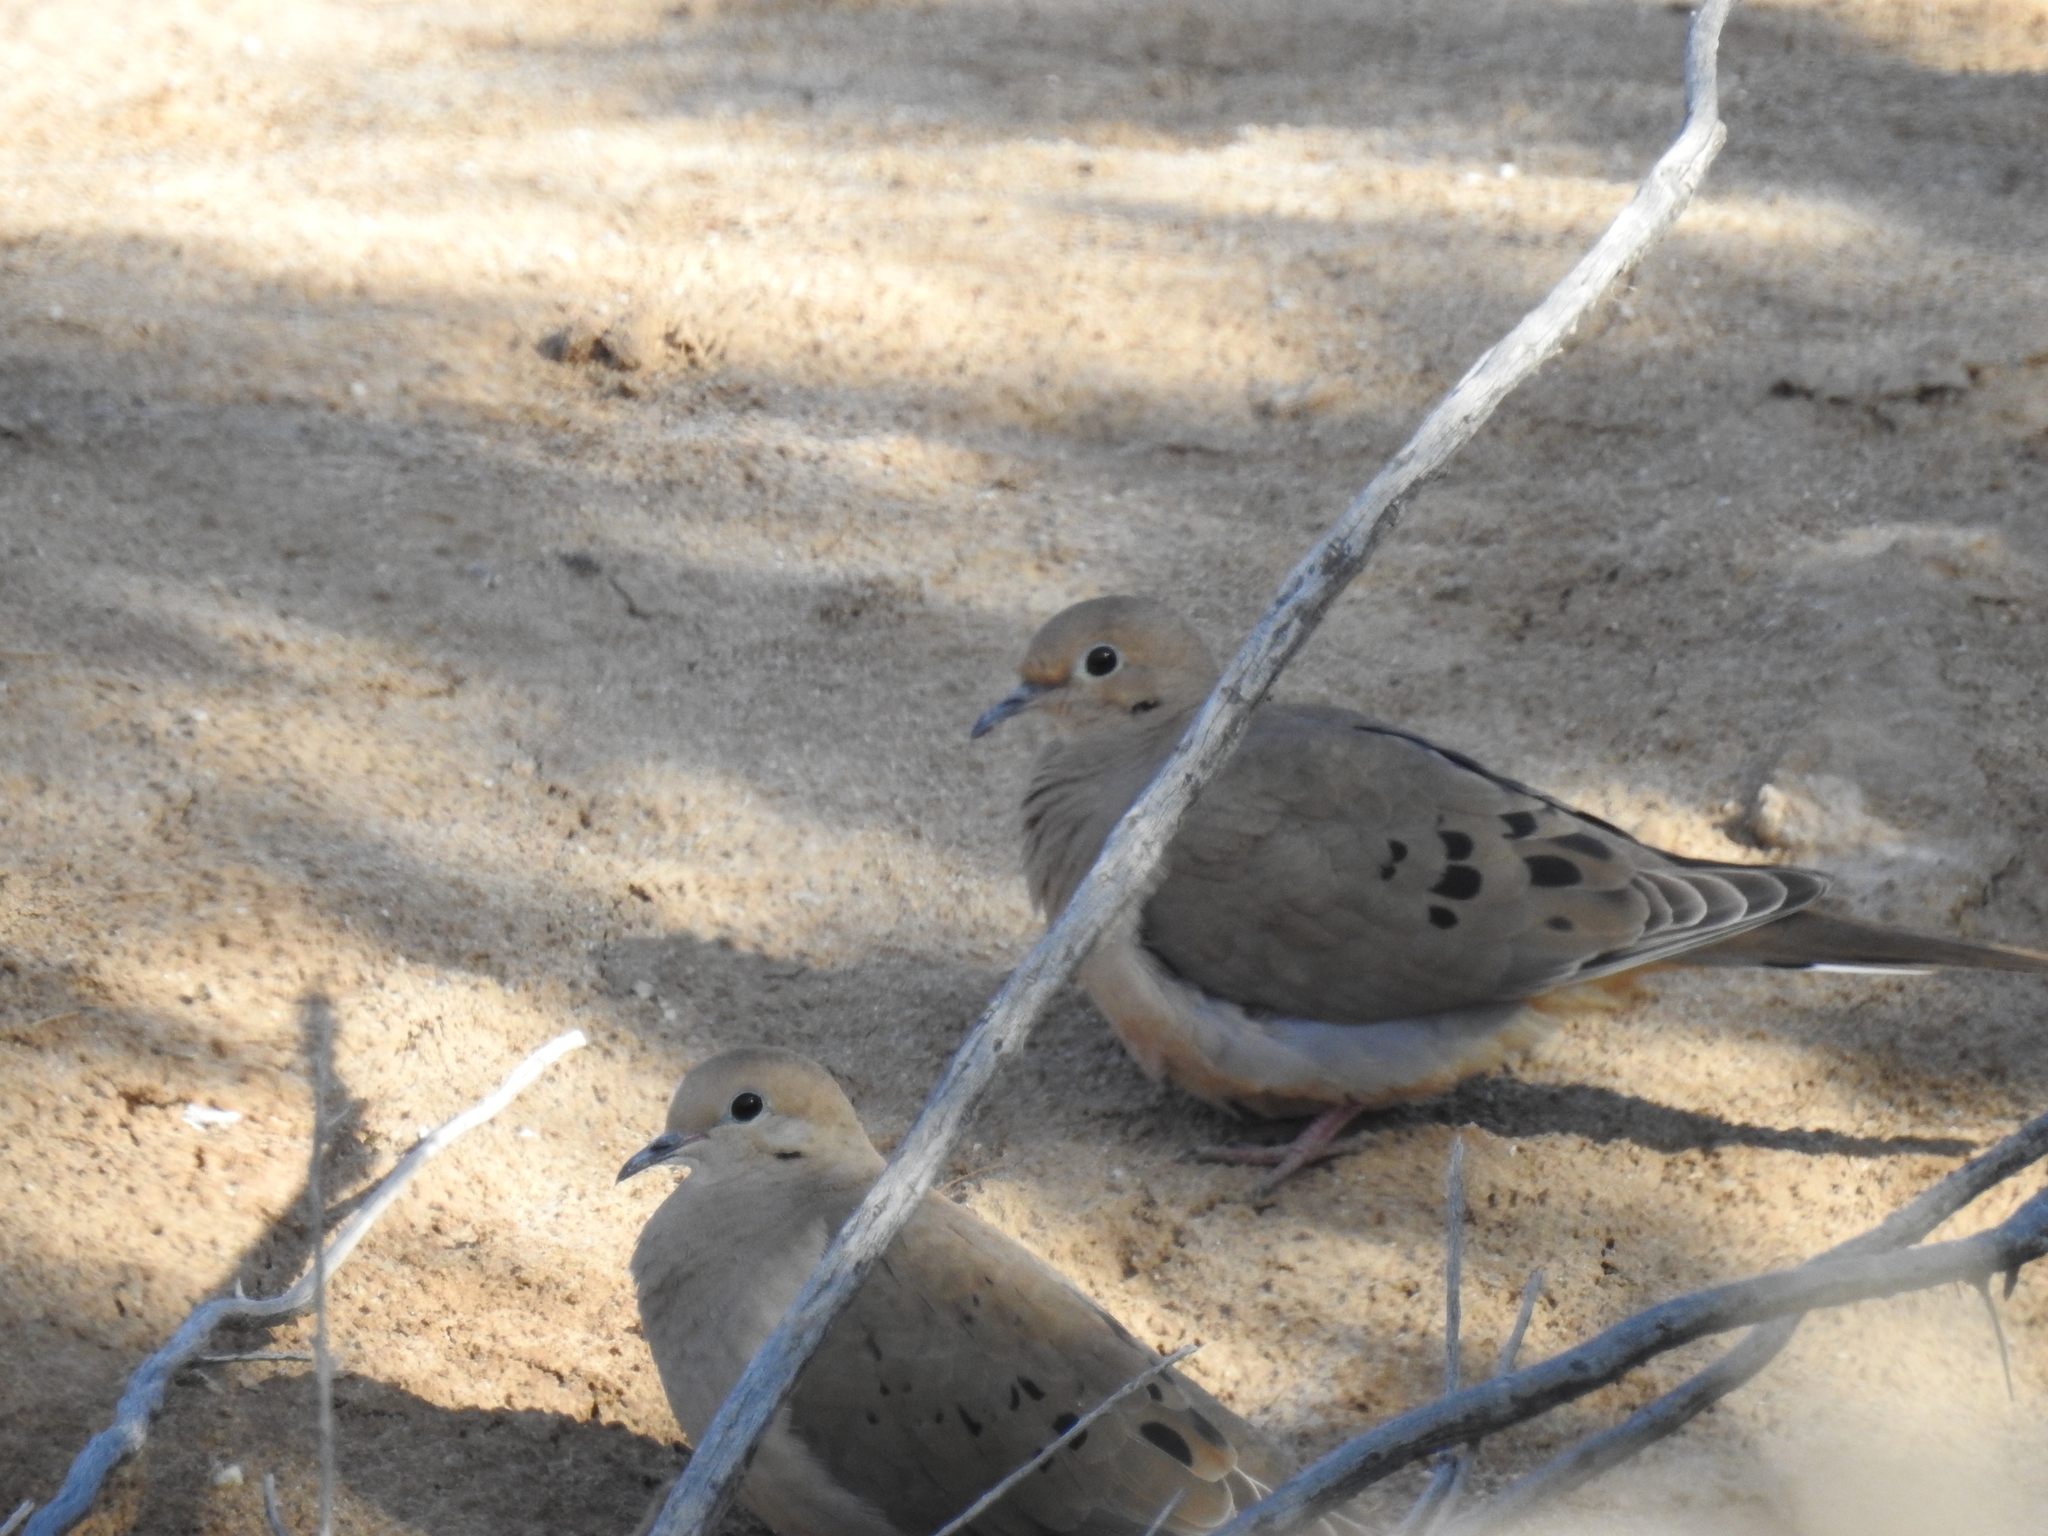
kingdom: Animalia
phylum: Chordata
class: Aves
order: Columbiformes
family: Columbidae
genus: Zenaida
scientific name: Zenaida macroura
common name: Mourning dove
